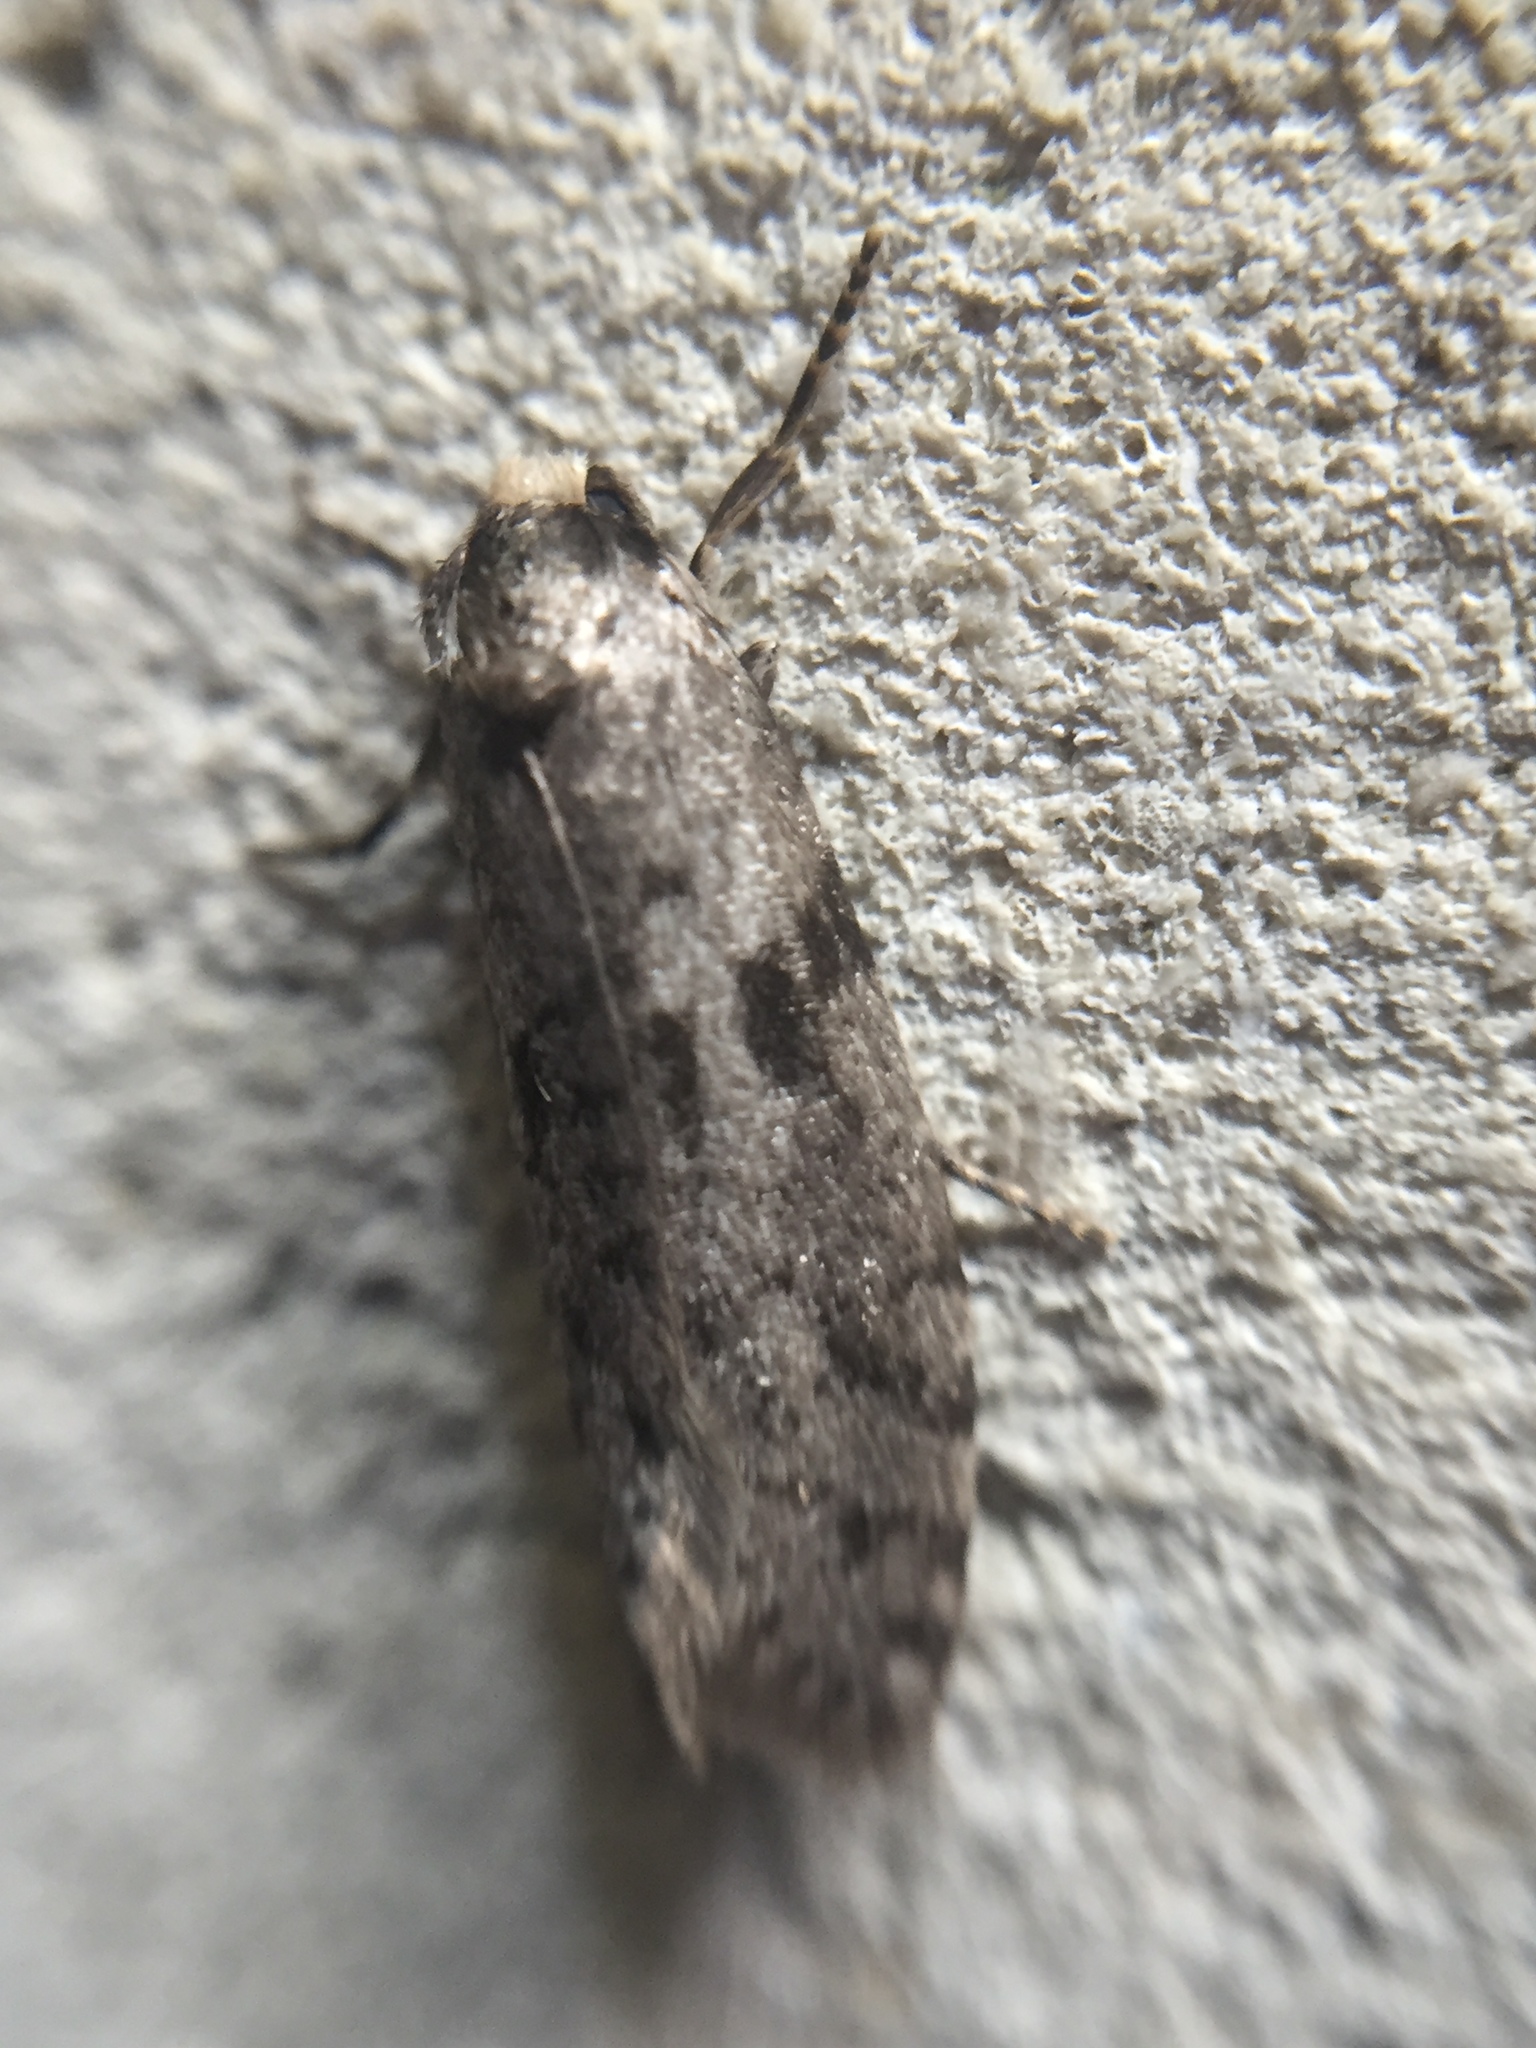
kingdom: Animalia
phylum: Arthropoda
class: Insecta
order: Lepidoptera
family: Psychidae
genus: Lepidoscia
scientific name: Lepidoscia protorna
